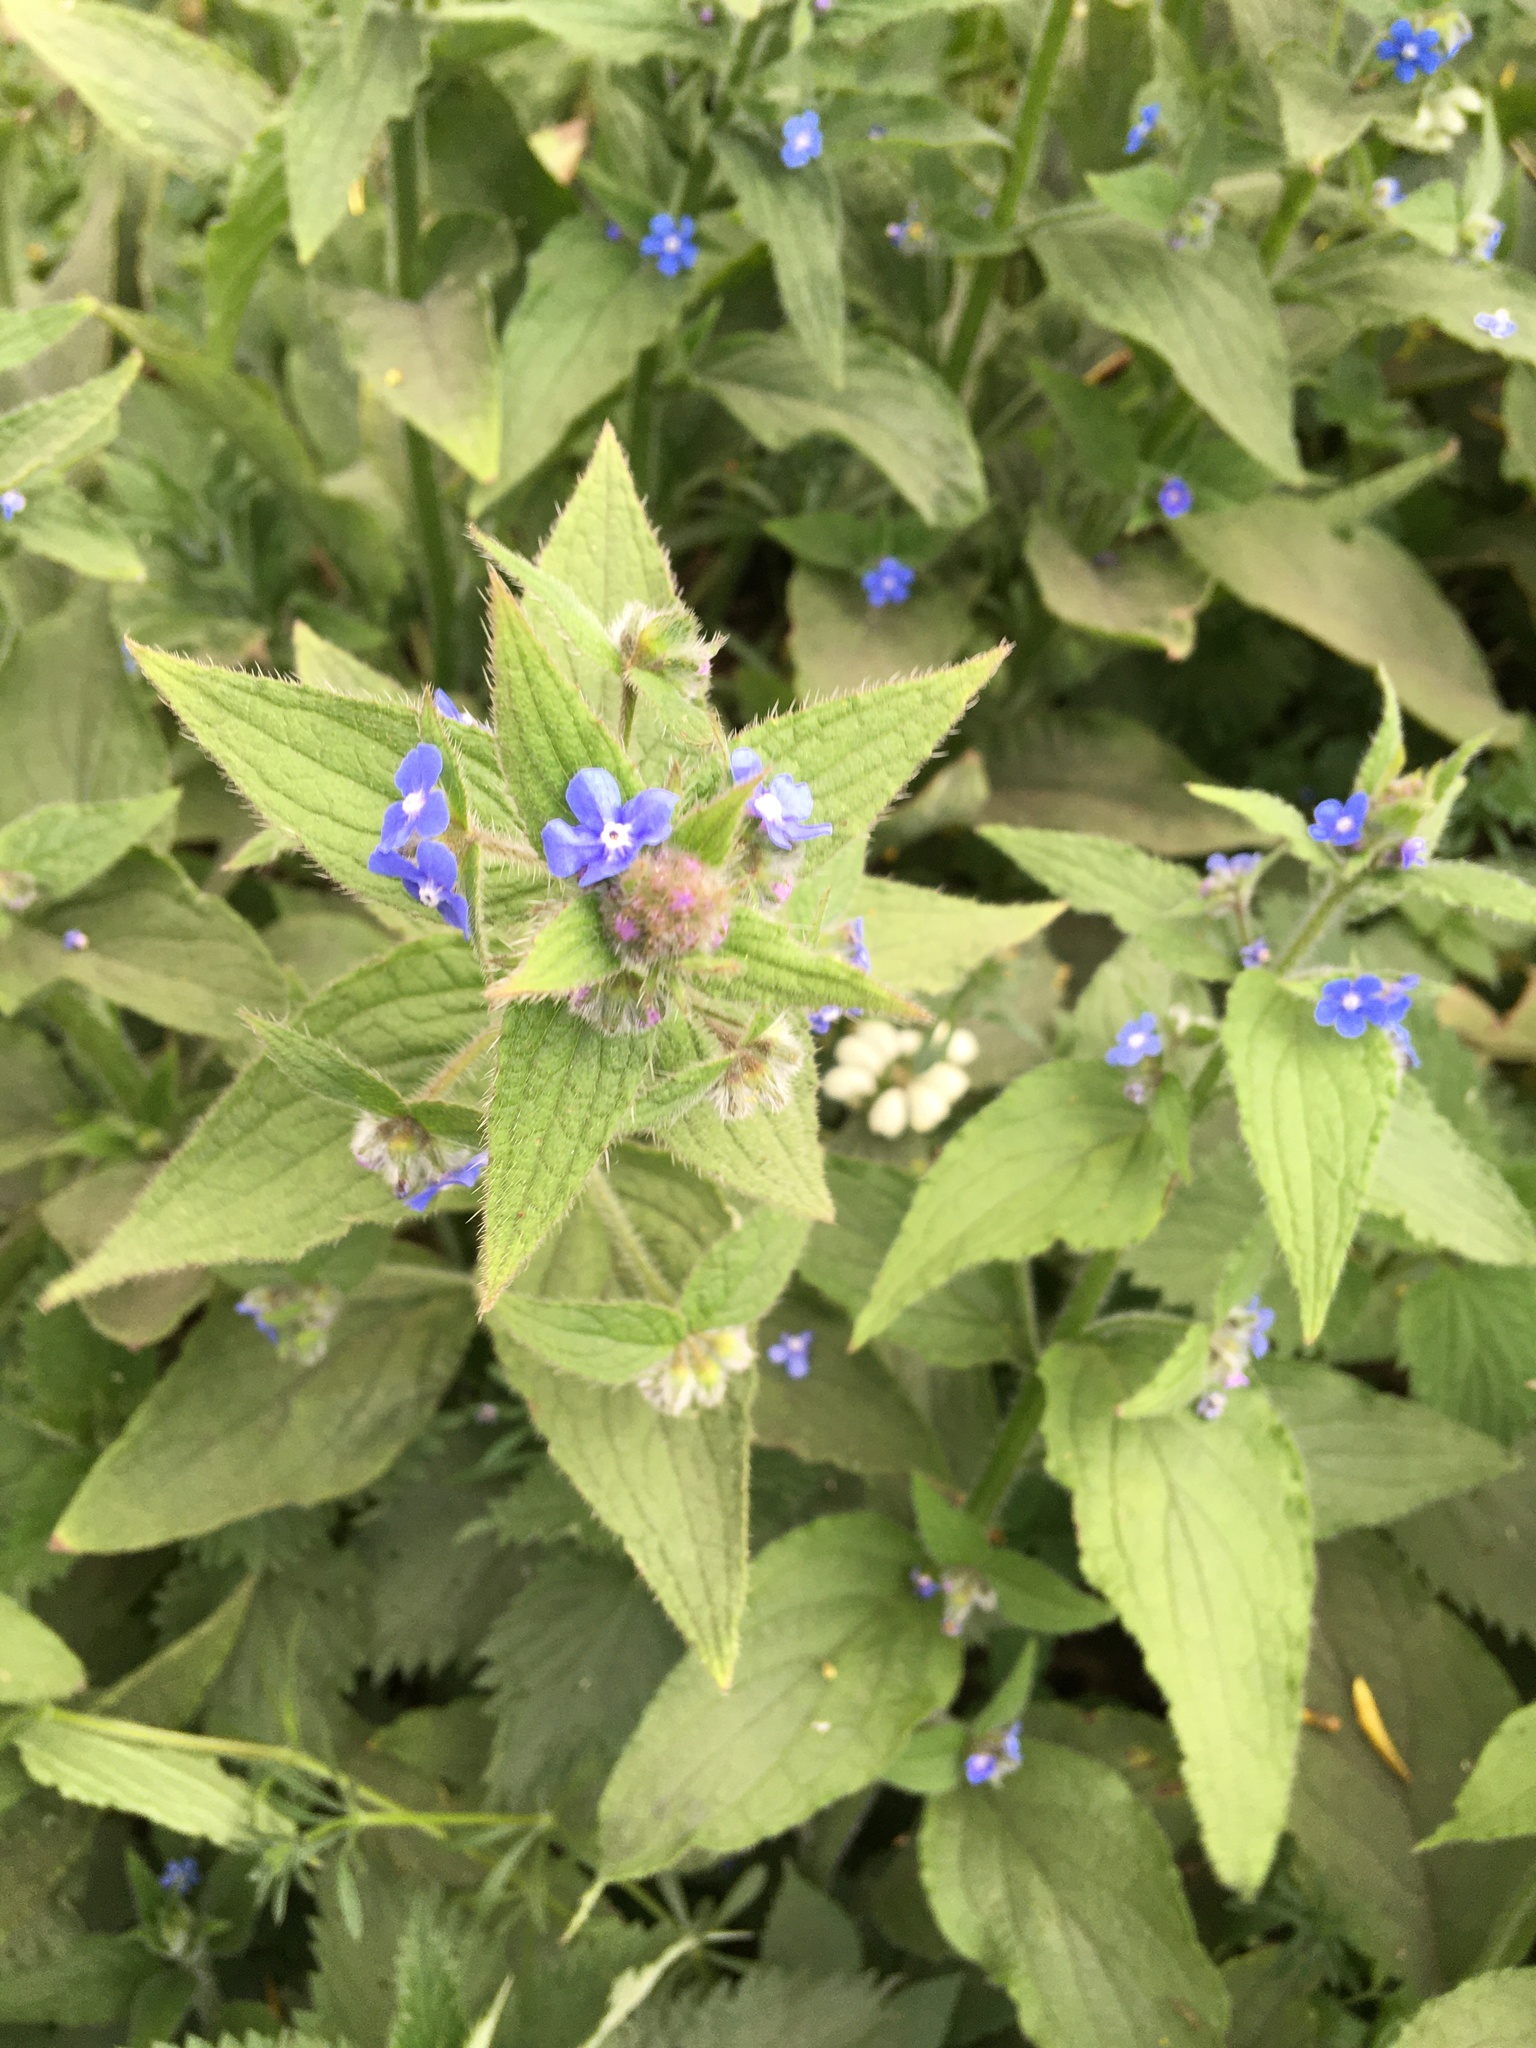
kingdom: Plantae
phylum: Tracheophyta
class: Magnoliopsida
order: Boraginales
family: Boraginaceae
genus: Pentaglottis
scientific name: Pentaglottis sempervirens
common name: Green alkanet
